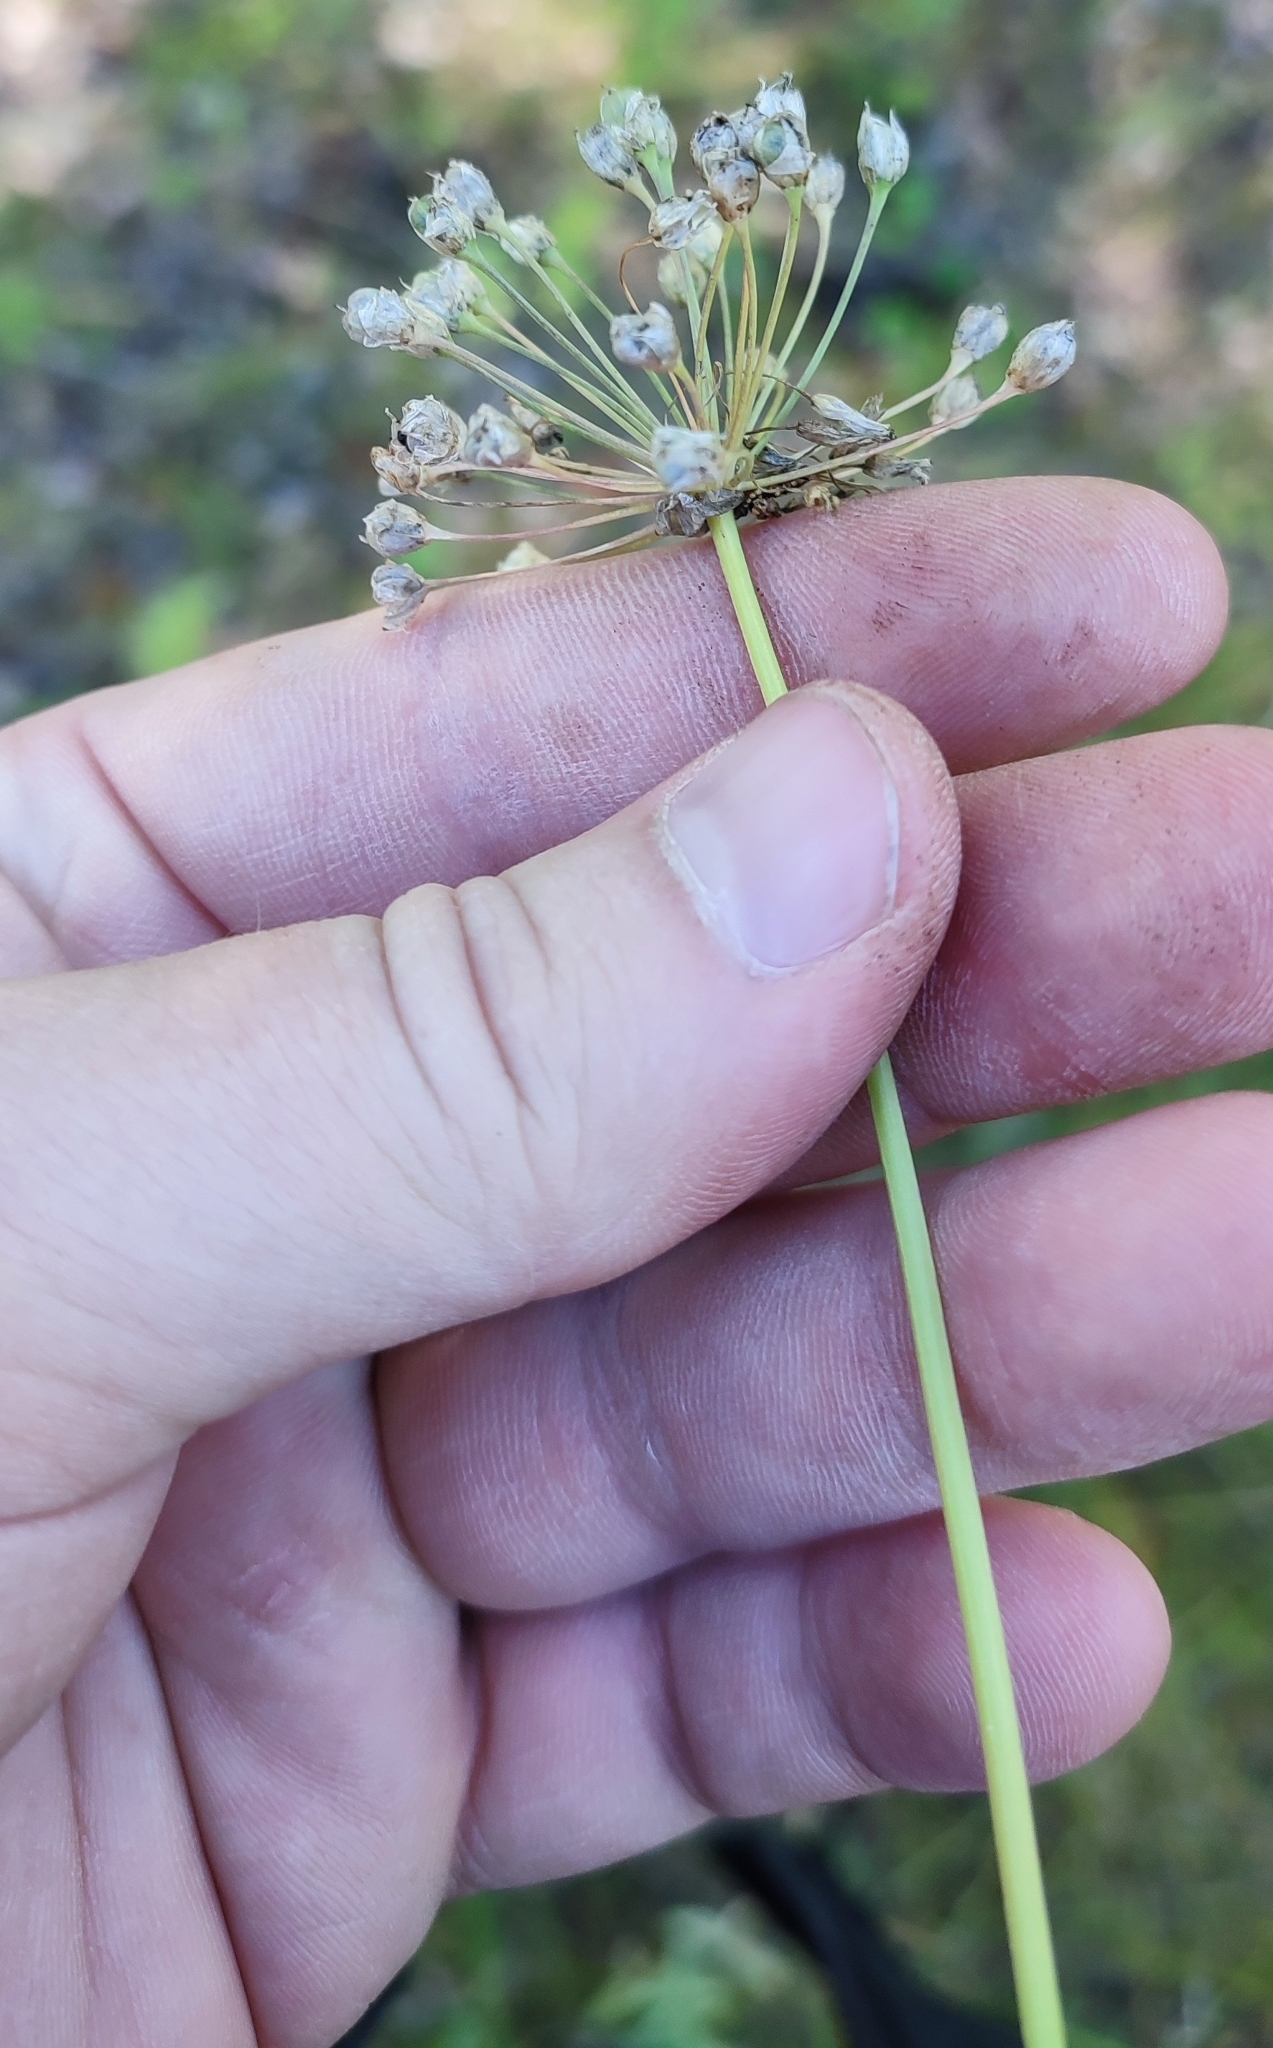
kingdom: Plantae
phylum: Tracheophyta
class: Liliopsida
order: Asparagales
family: Amaryllidaceae
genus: Allium
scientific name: Allium angulosum
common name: Mouse garlic
